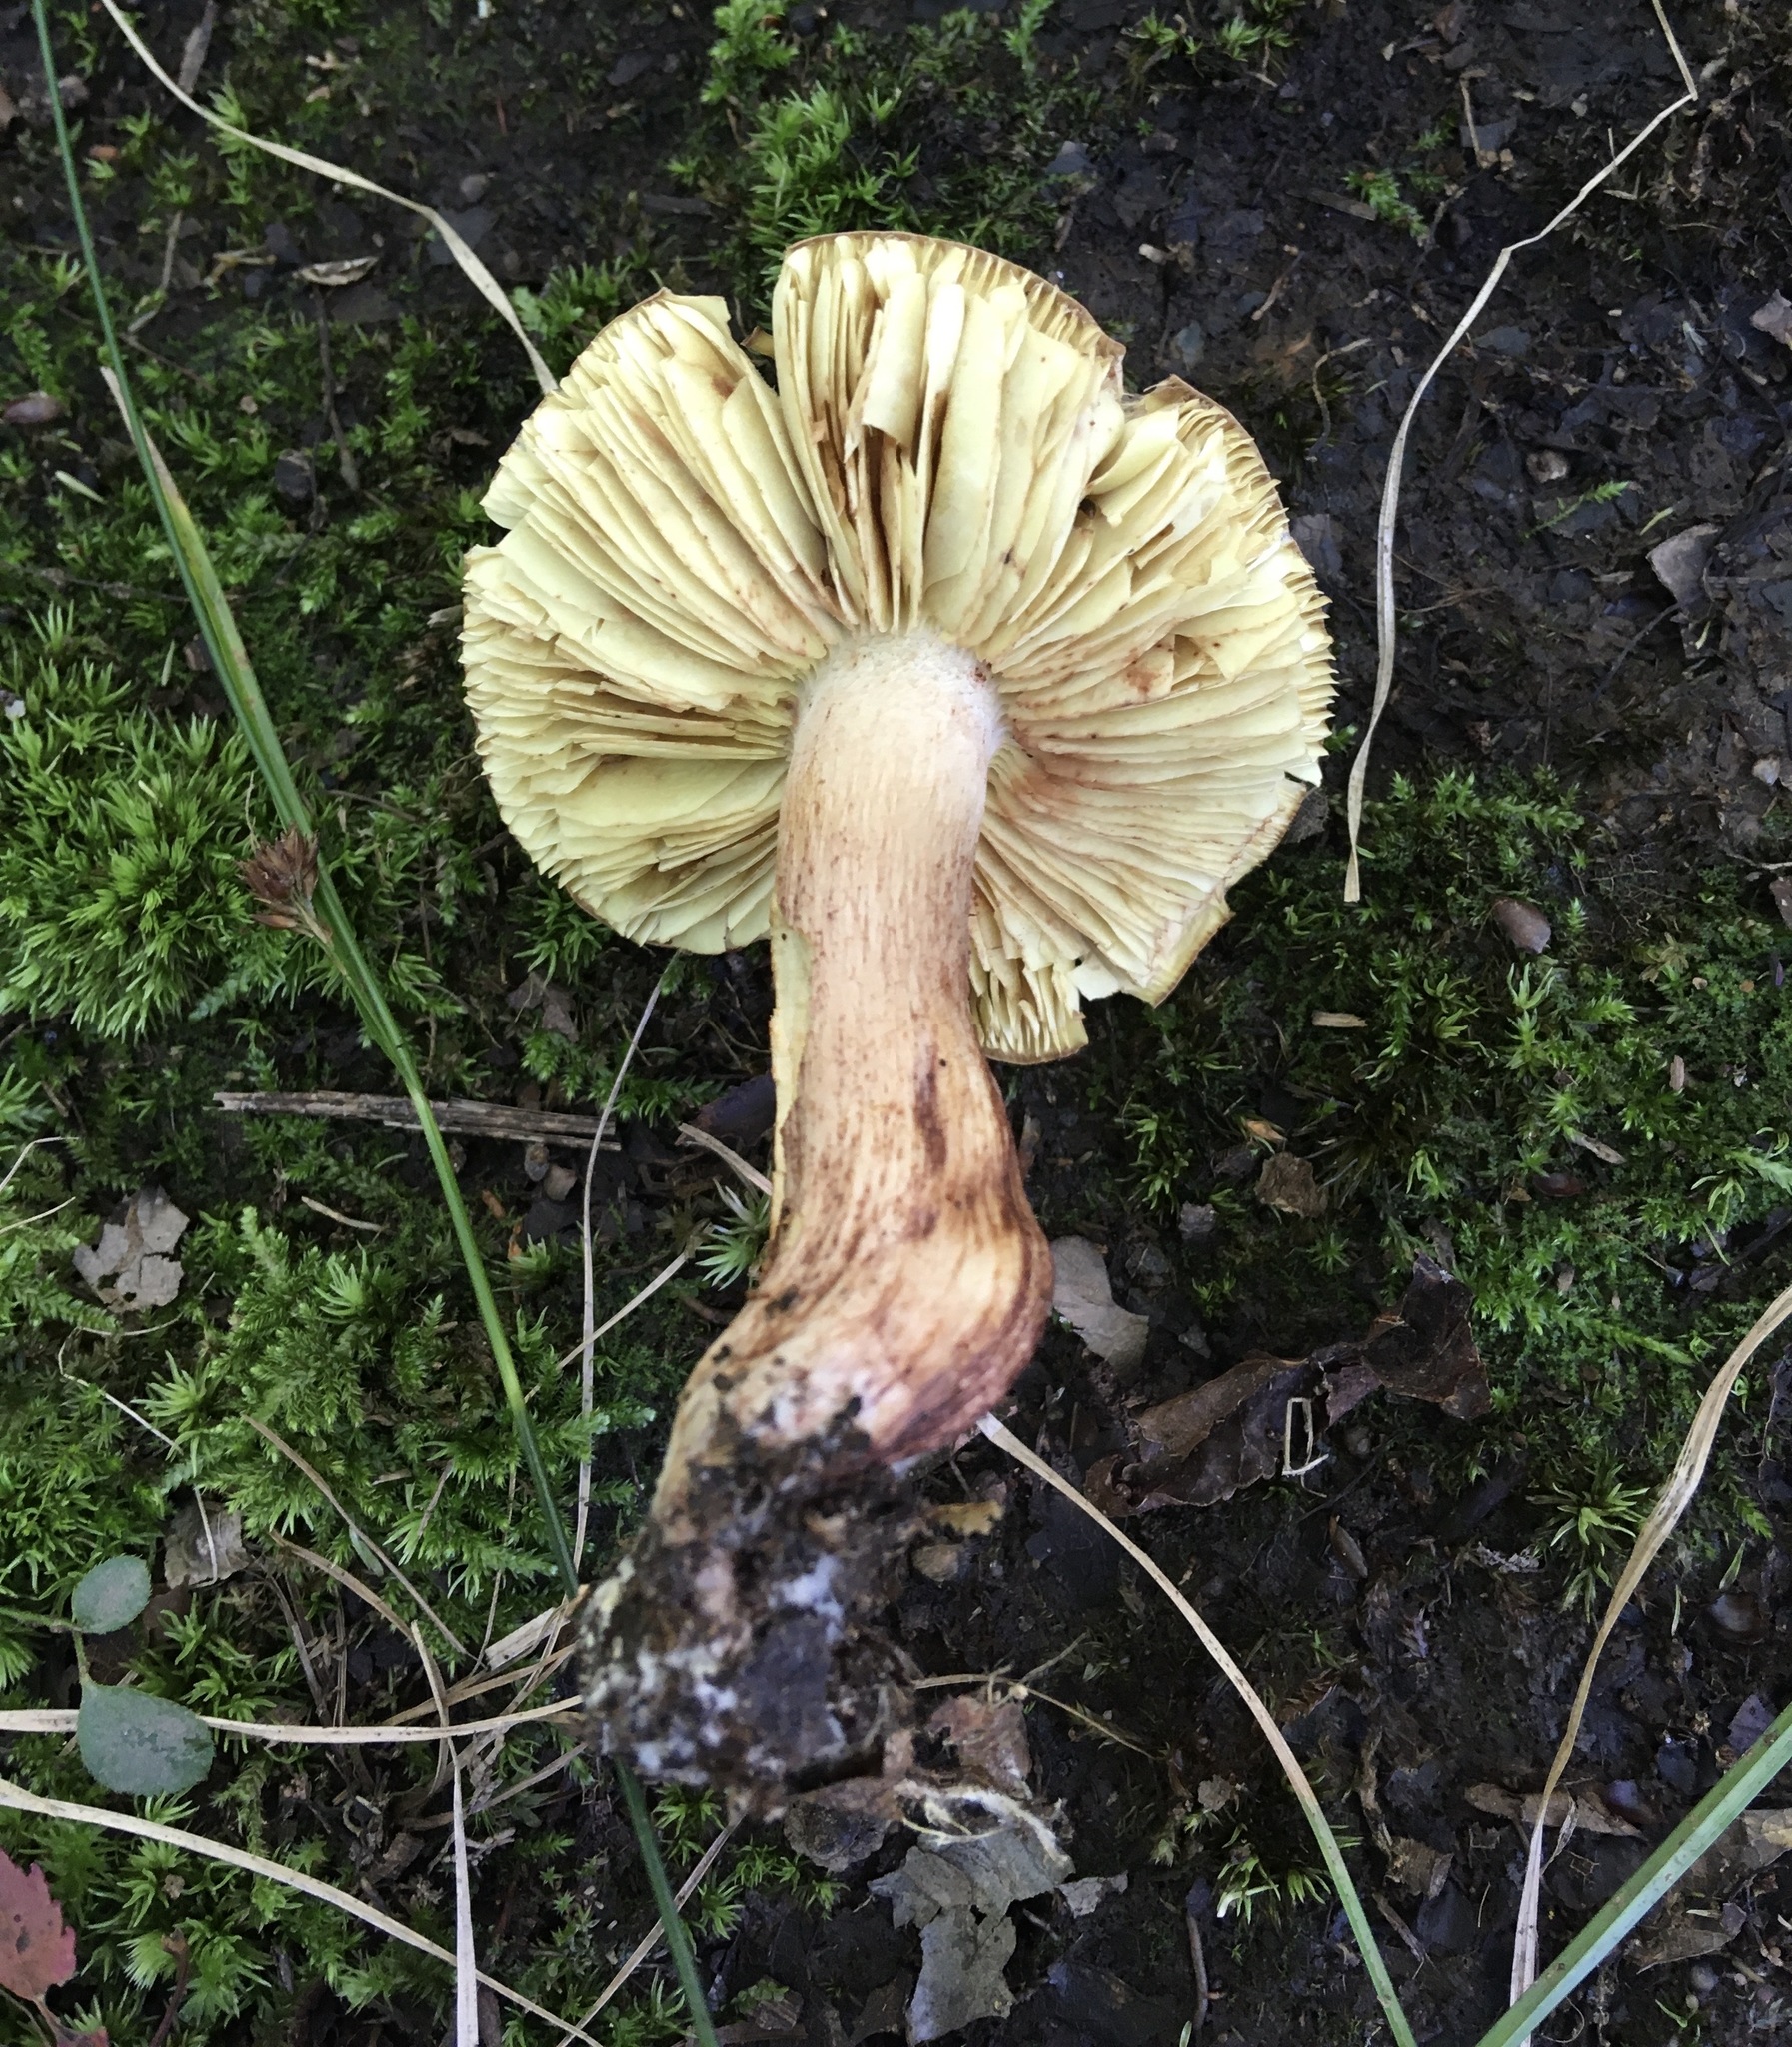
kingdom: Fungi
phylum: Basidiomycota
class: Agaricomycetes
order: Agaricales
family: Tricholomataceae
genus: Tricholoma
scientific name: Tricholoma brunneoluteum
